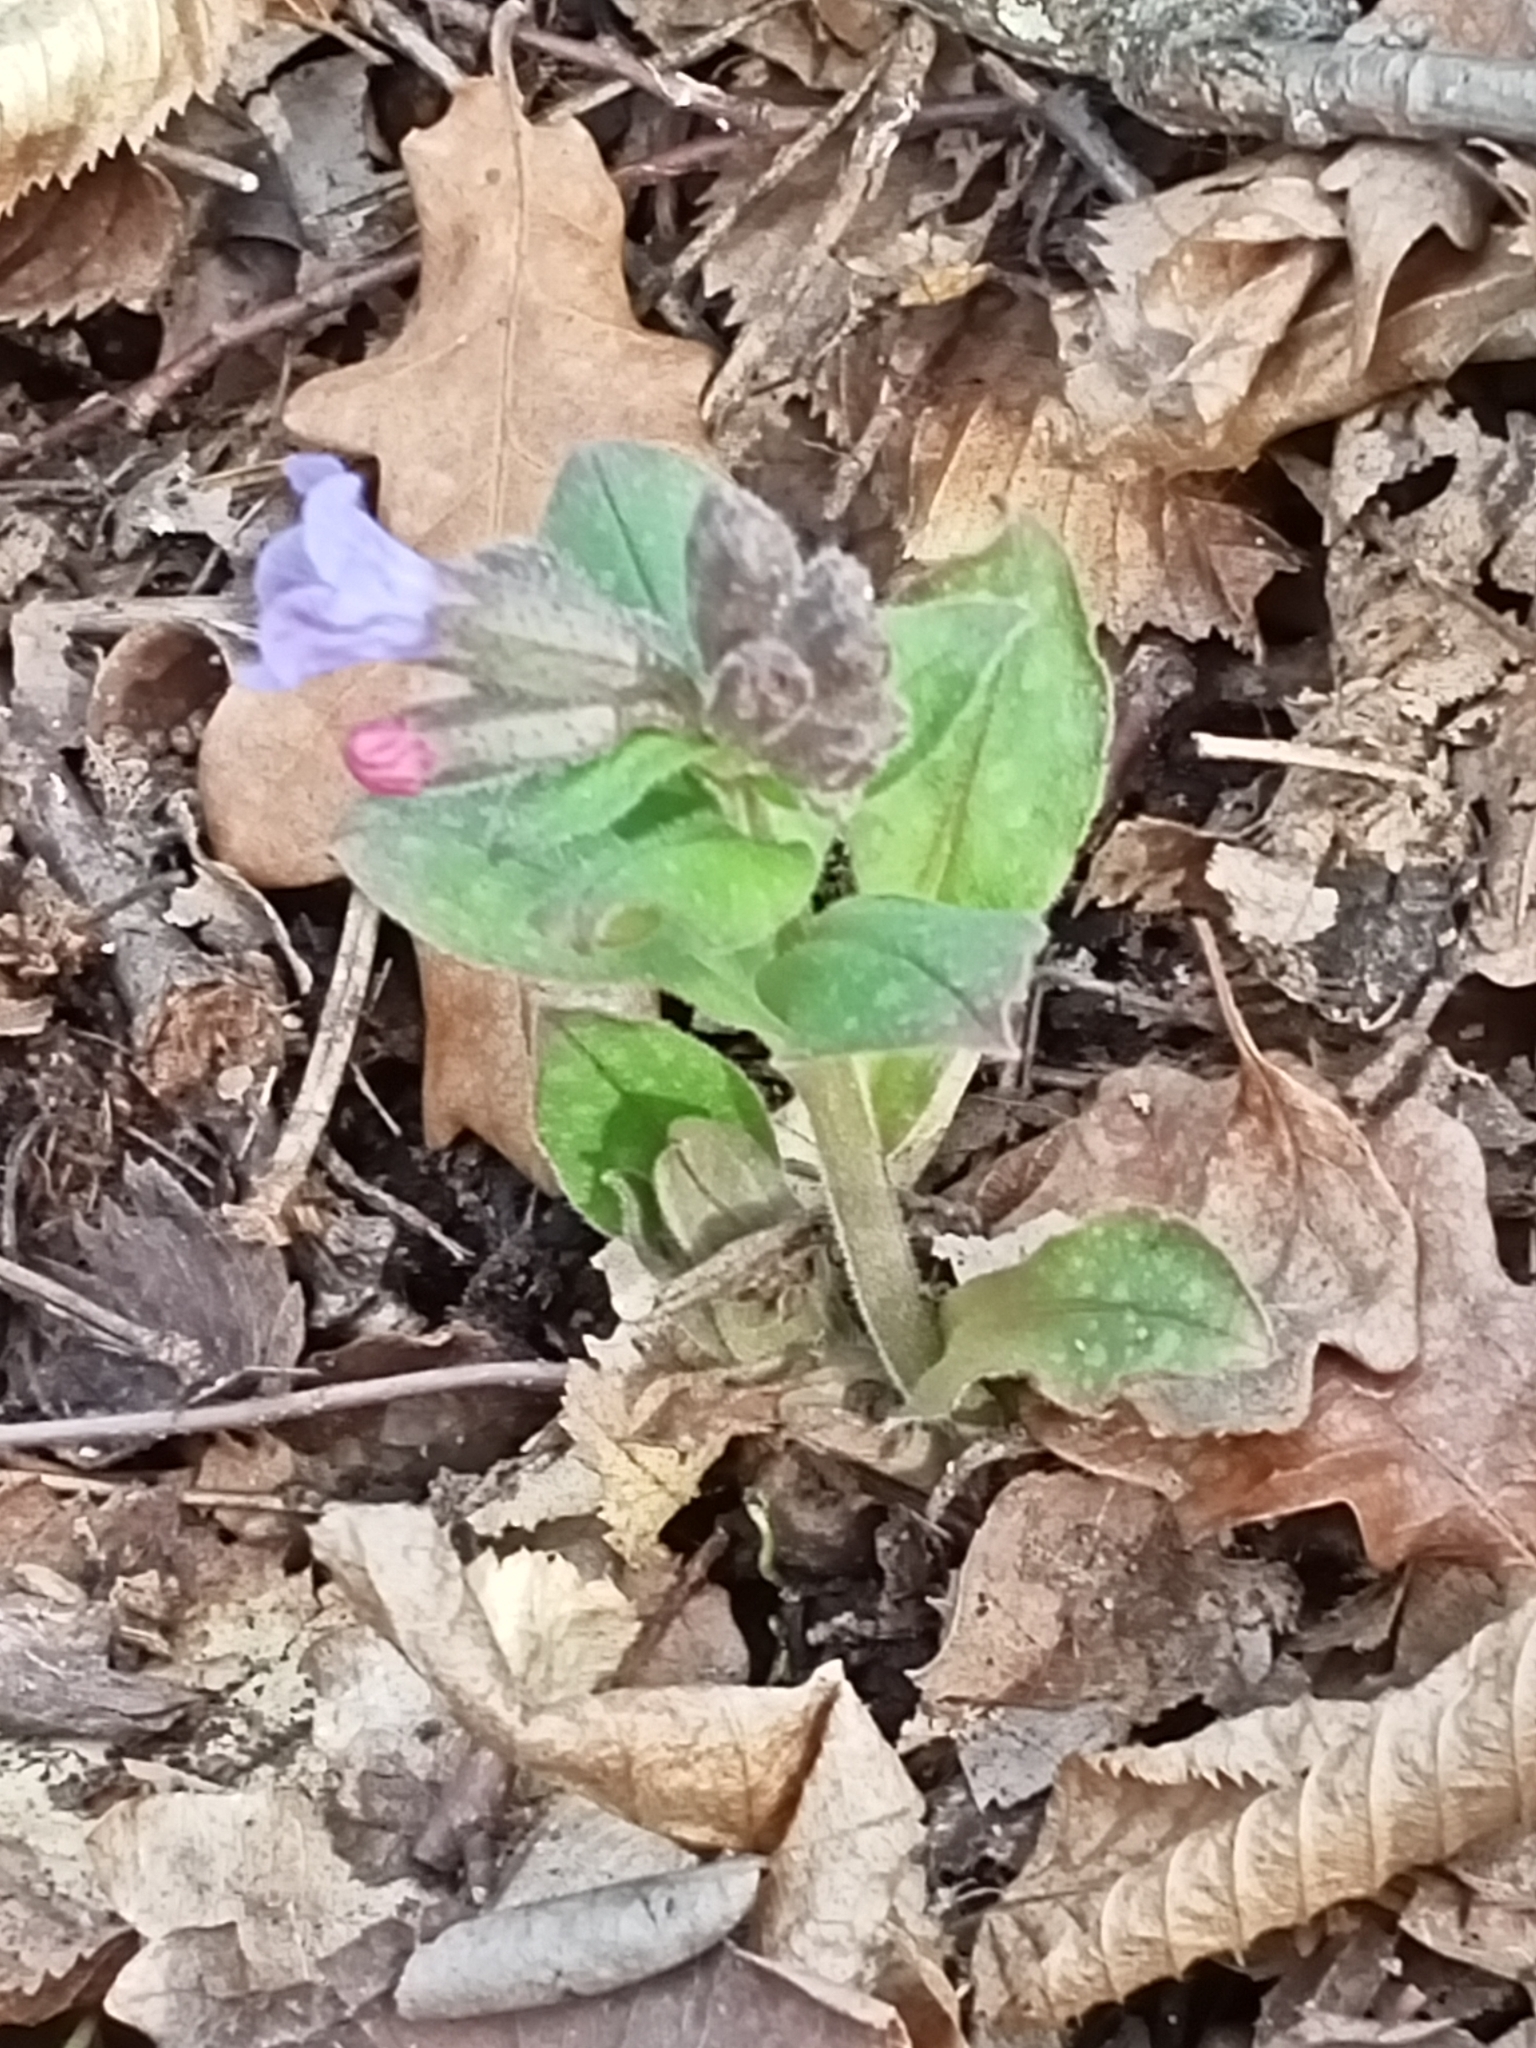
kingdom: Plantae
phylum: Tracheophyta
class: Magnoliopsida
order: Boraginales
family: Boraginaceae
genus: Pulmonaria
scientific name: Pulmonaria officinalis
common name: Lungwort
